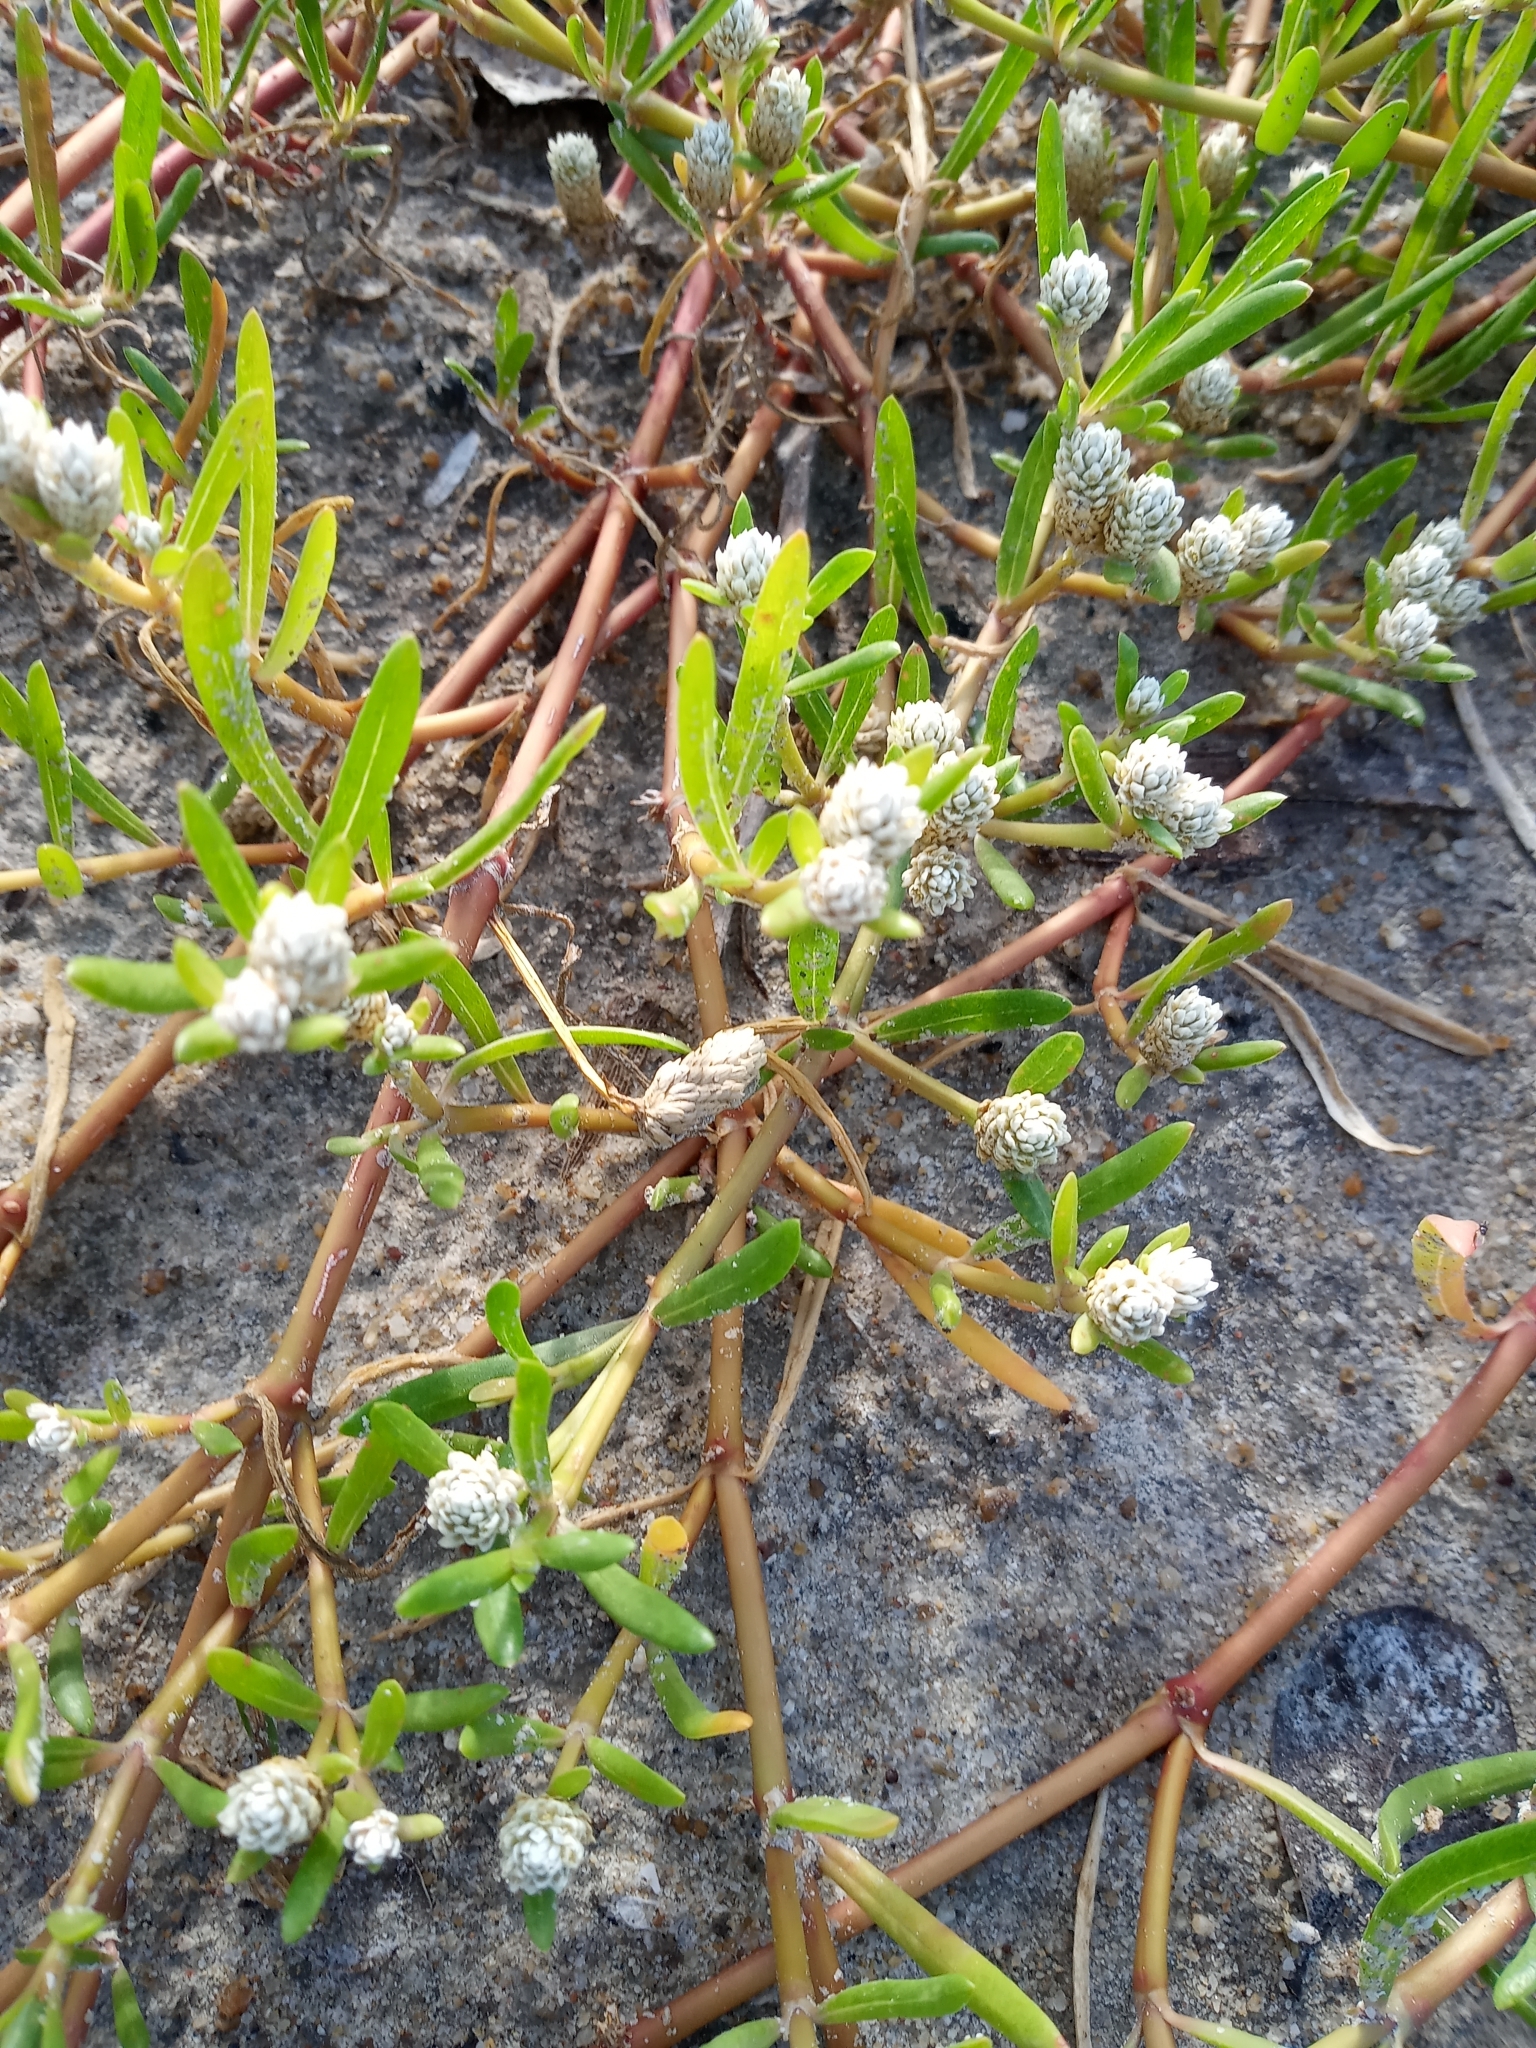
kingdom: Plantae
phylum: Tracheophyta
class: Magnoliopsida
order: Caryophyllales
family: Amaranthaceae
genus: Gomphrena
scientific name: Gomphrena vermicularis
